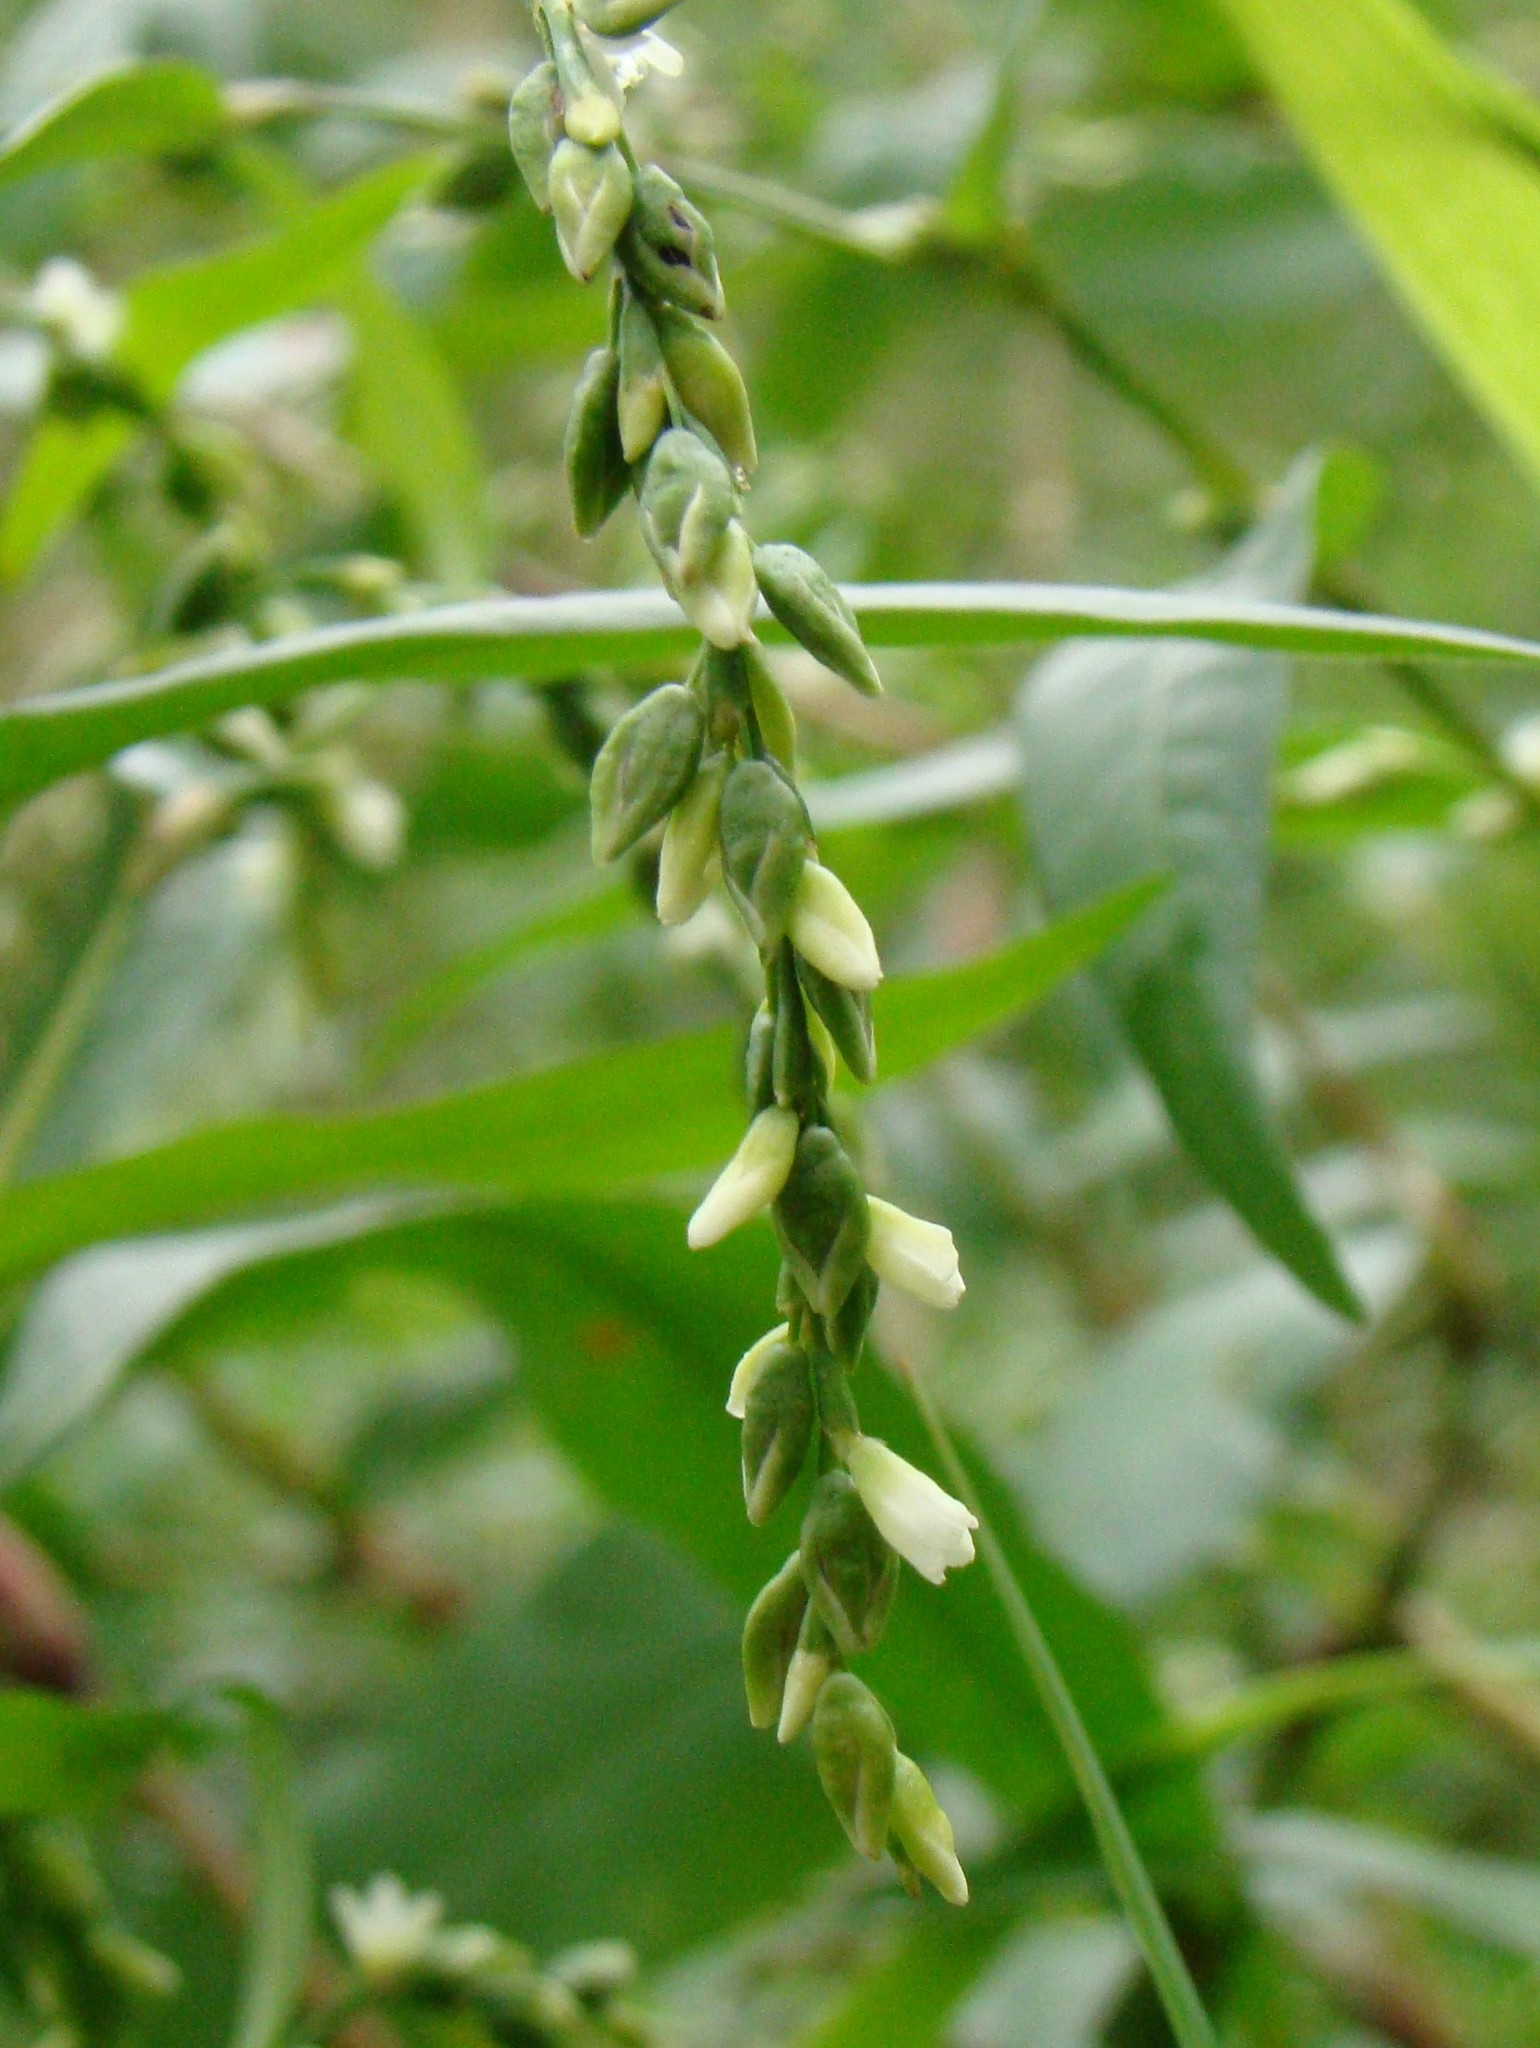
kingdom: Plantae
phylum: Tracheophyta
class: Magnoliopsida
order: Caryophyllales
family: Polygonaceae
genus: Persicaria
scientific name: Persicaria hydropiper
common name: Water-pepper
